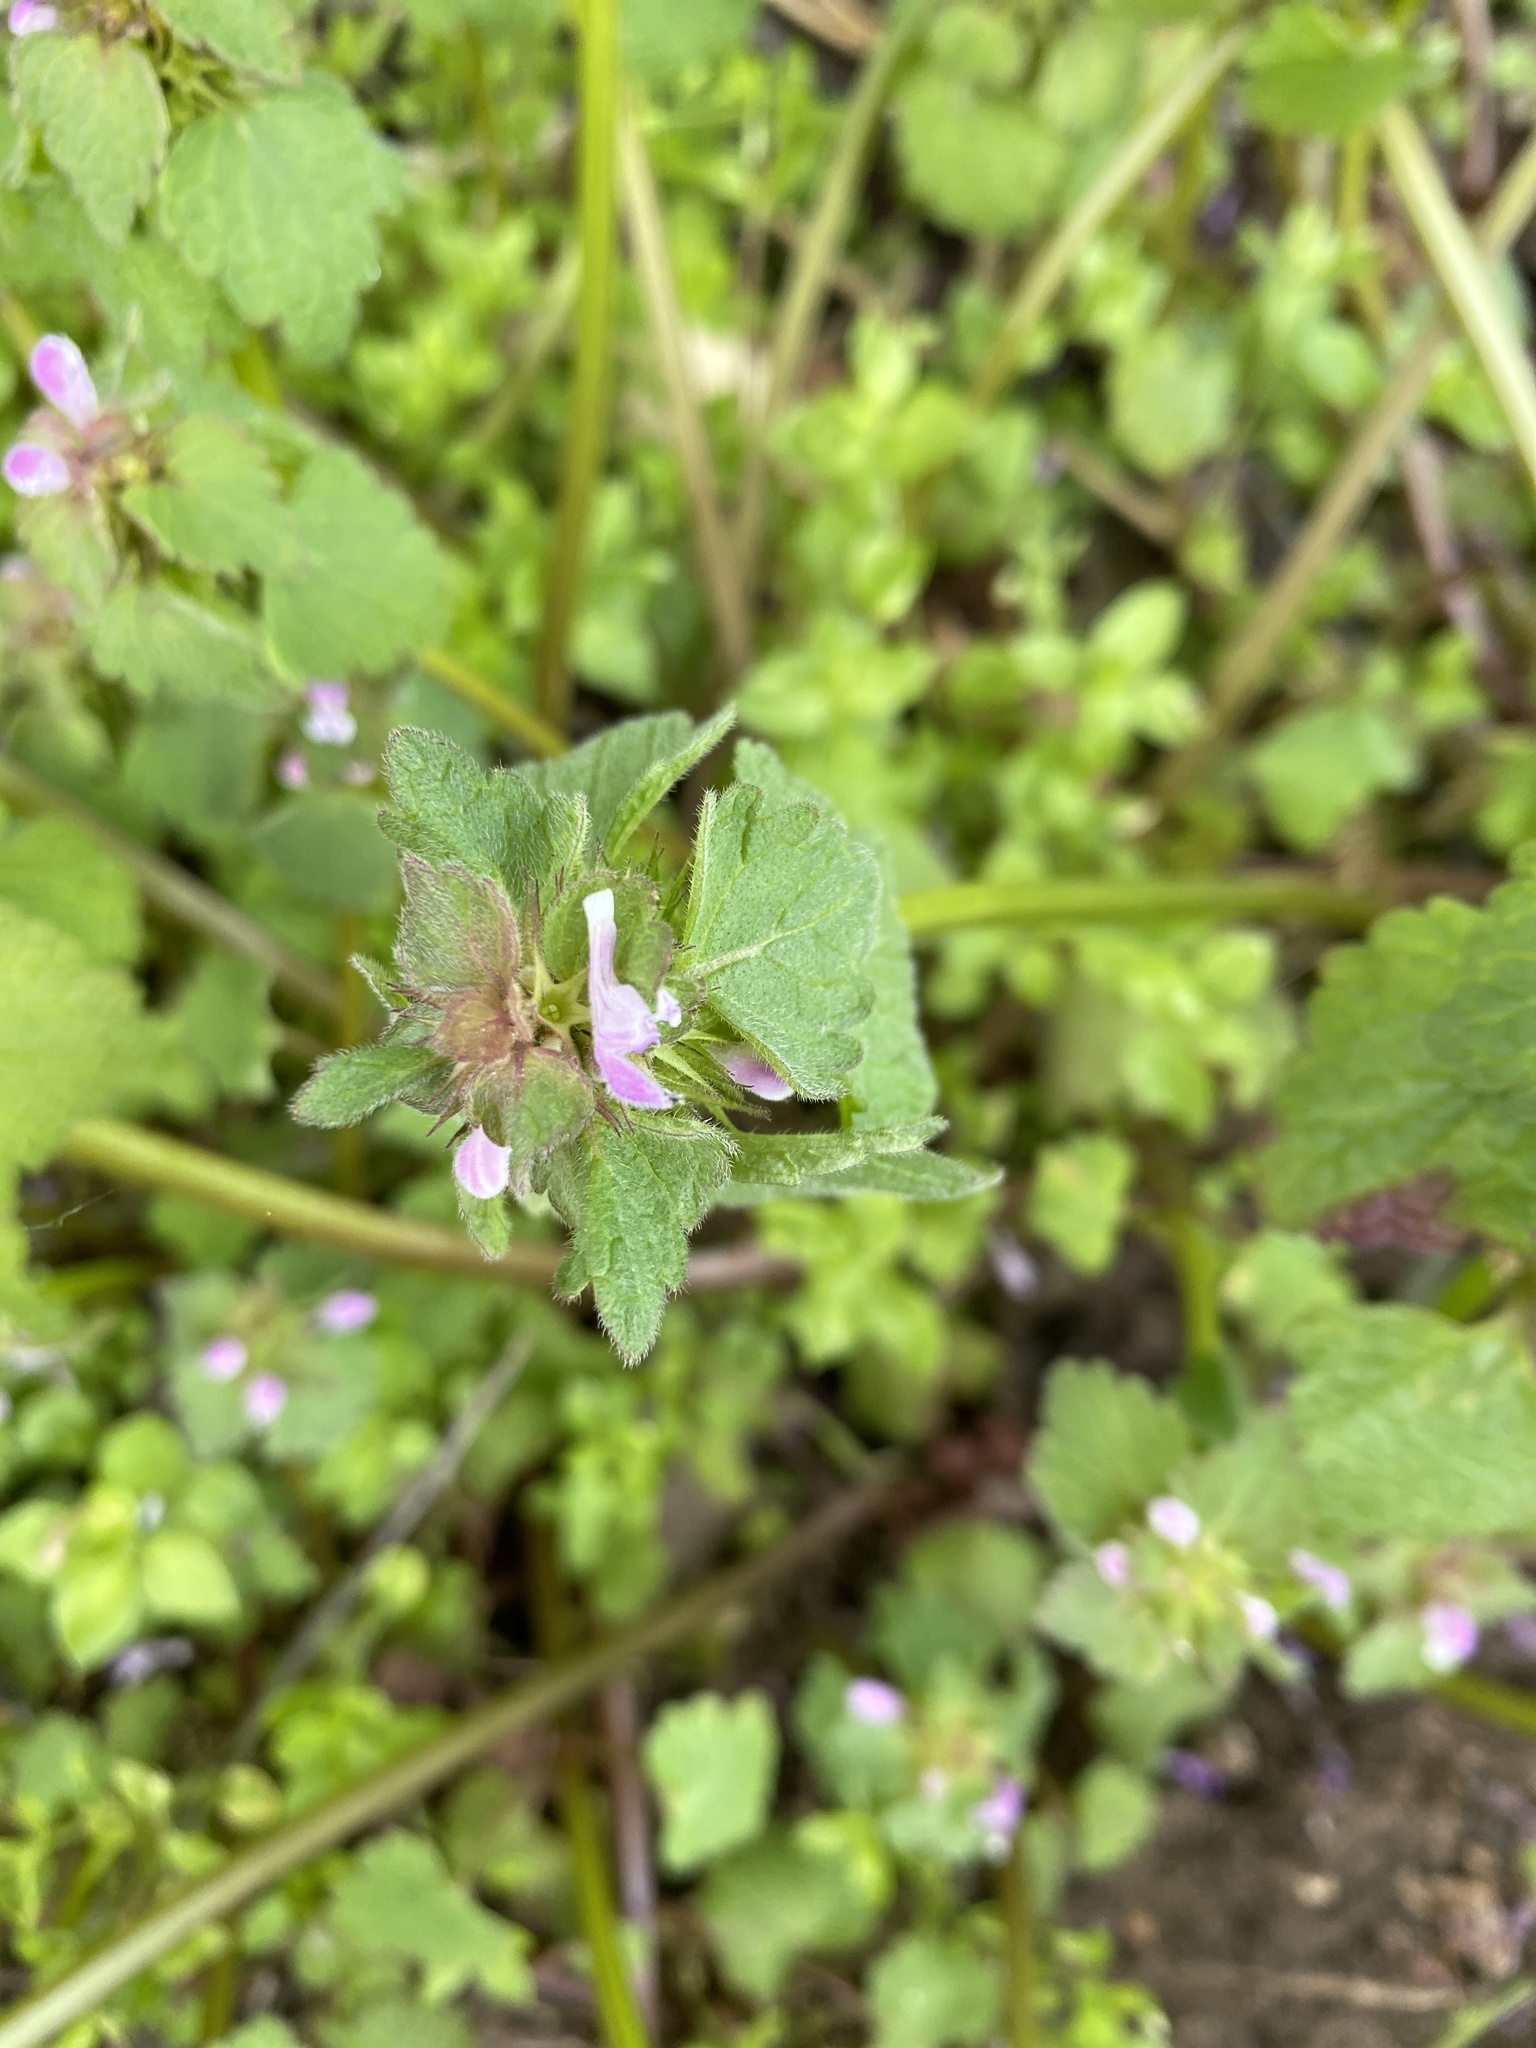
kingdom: Plantae
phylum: Tracheophyta
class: Magnoliopsida
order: Lamiales
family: Lamiaceae
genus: Lamium
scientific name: Lamium purpureum
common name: Red dead-nettle
